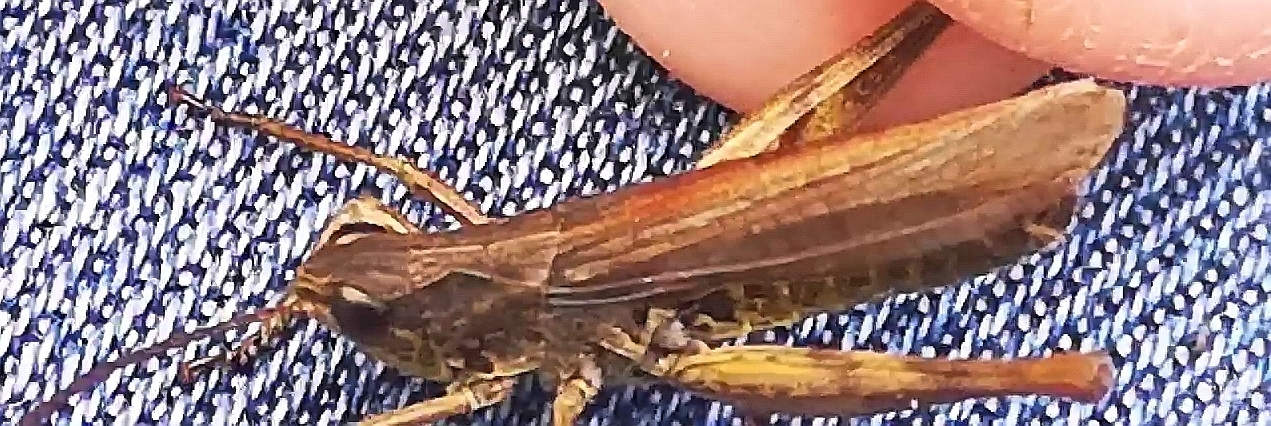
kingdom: Animalia
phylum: Arthropoda
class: Insecta
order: Orthoptera
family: Acrididae
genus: Chorthippus
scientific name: Chorthippus apricarius
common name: Upland field grasshopper
